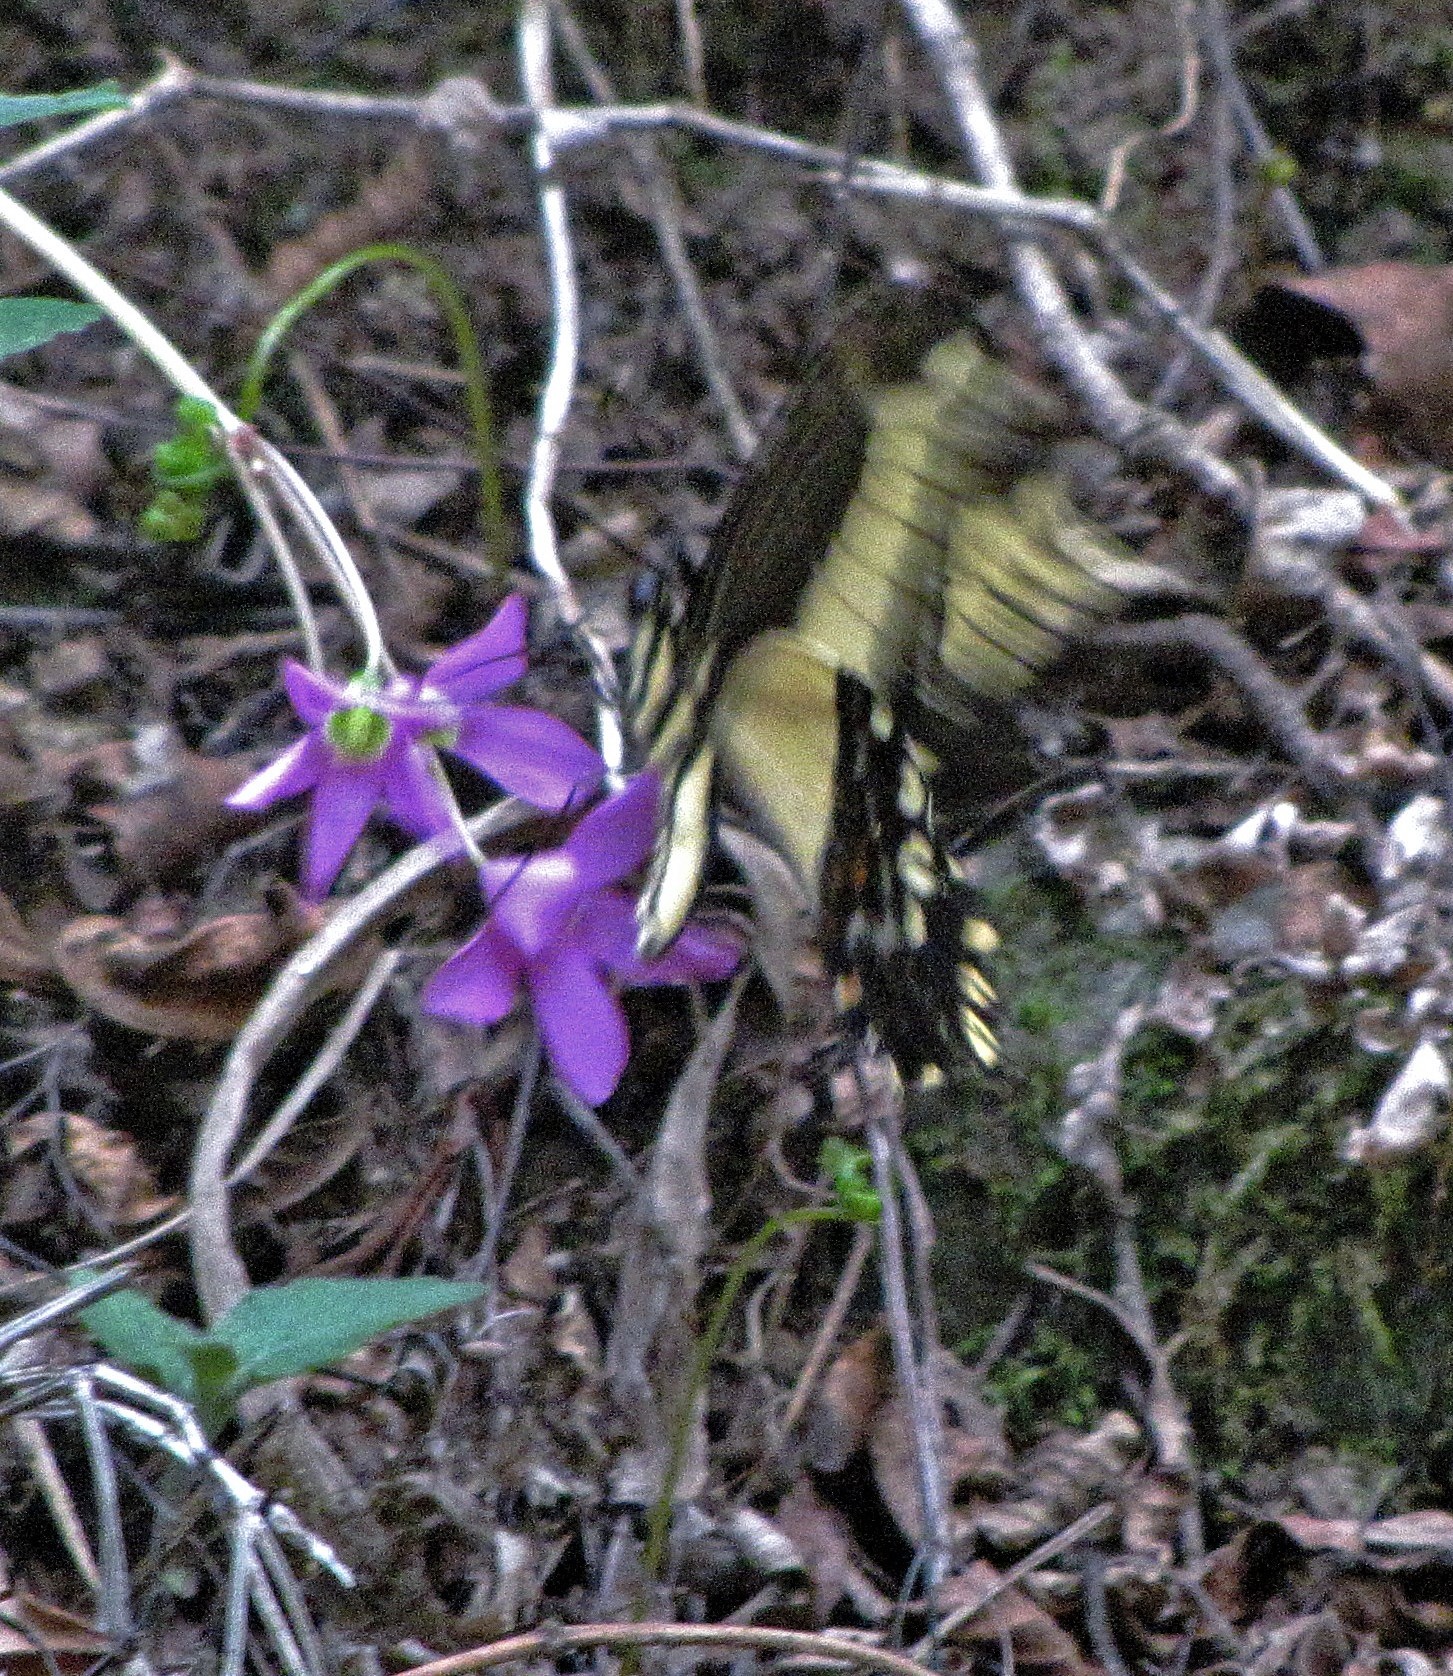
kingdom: Animalia
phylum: Arthropoda
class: Insecta
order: Lepidoptera
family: Papilionidae
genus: Heraclides
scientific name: Heraclides lamarchei
